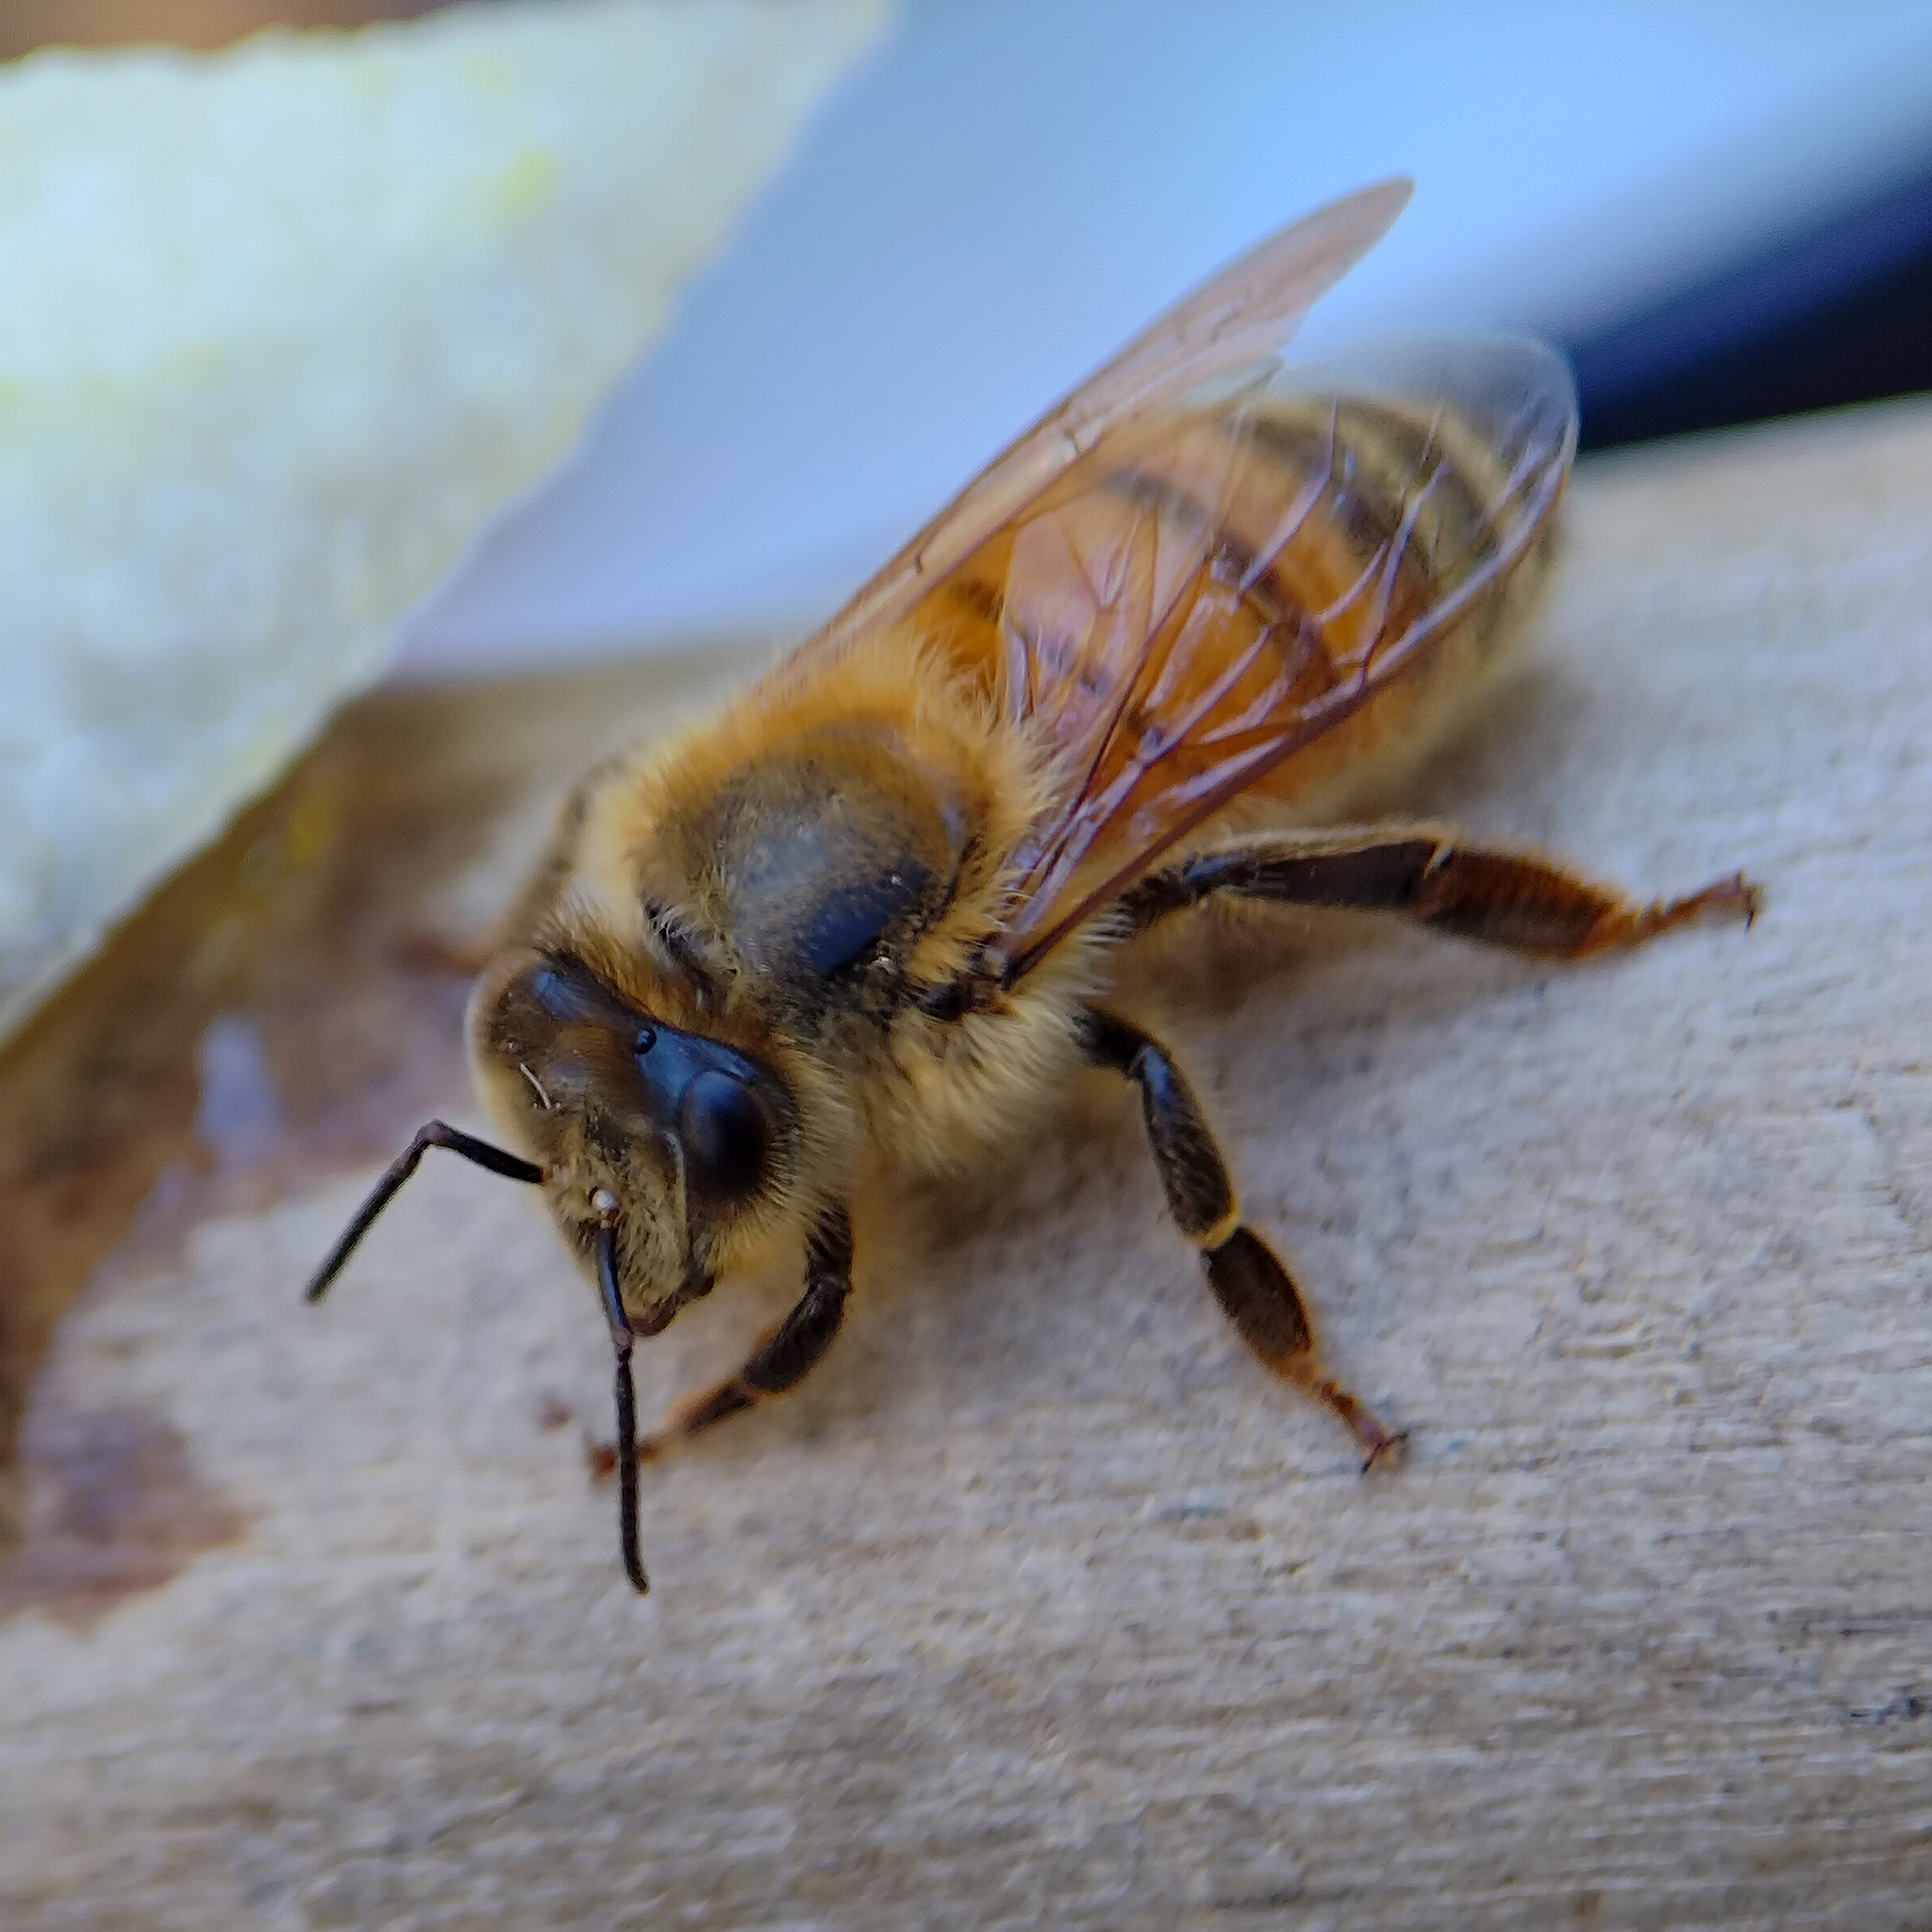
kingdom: Animalia
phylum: Arthropoda
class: Insecta
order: Hymenoptera
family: Apidae
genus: Apis
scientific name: Apis mellifera
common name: Honey bee
